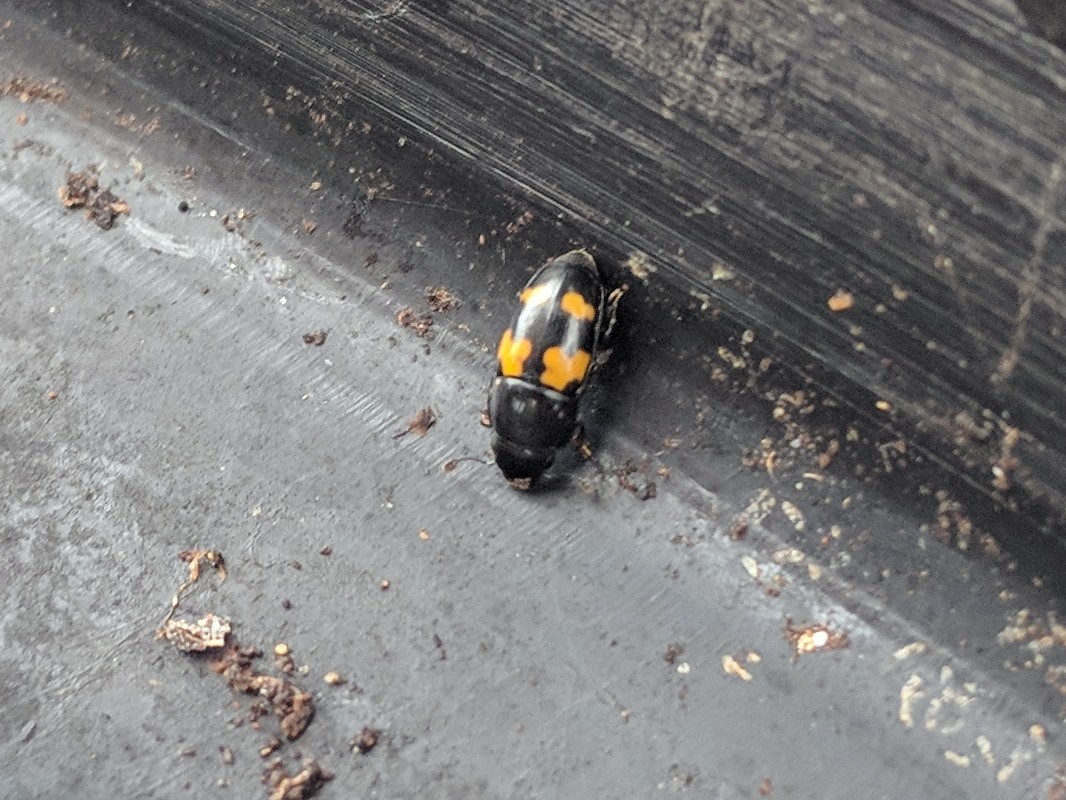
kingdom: Animalia
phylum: Arthropoda
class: Insecta
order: Coleoptera
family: Nitidulidae
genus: Glischrochilus
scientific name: Glischrochilus fasciatus
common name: Picnic beetle
